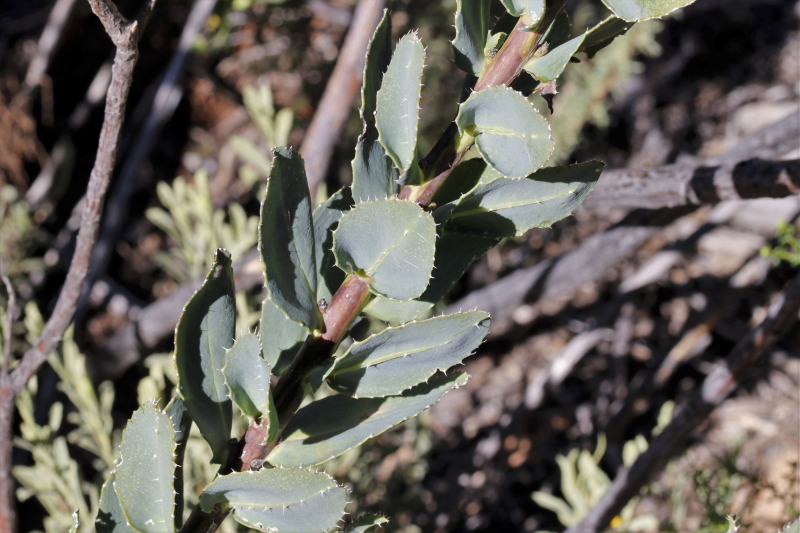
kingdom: Plantae
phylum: Tracheophyta
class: Magnoliopsida
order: Boraginales
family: Boraginaceae
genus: Lobostemon
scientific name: Lobostemon laevigatus
